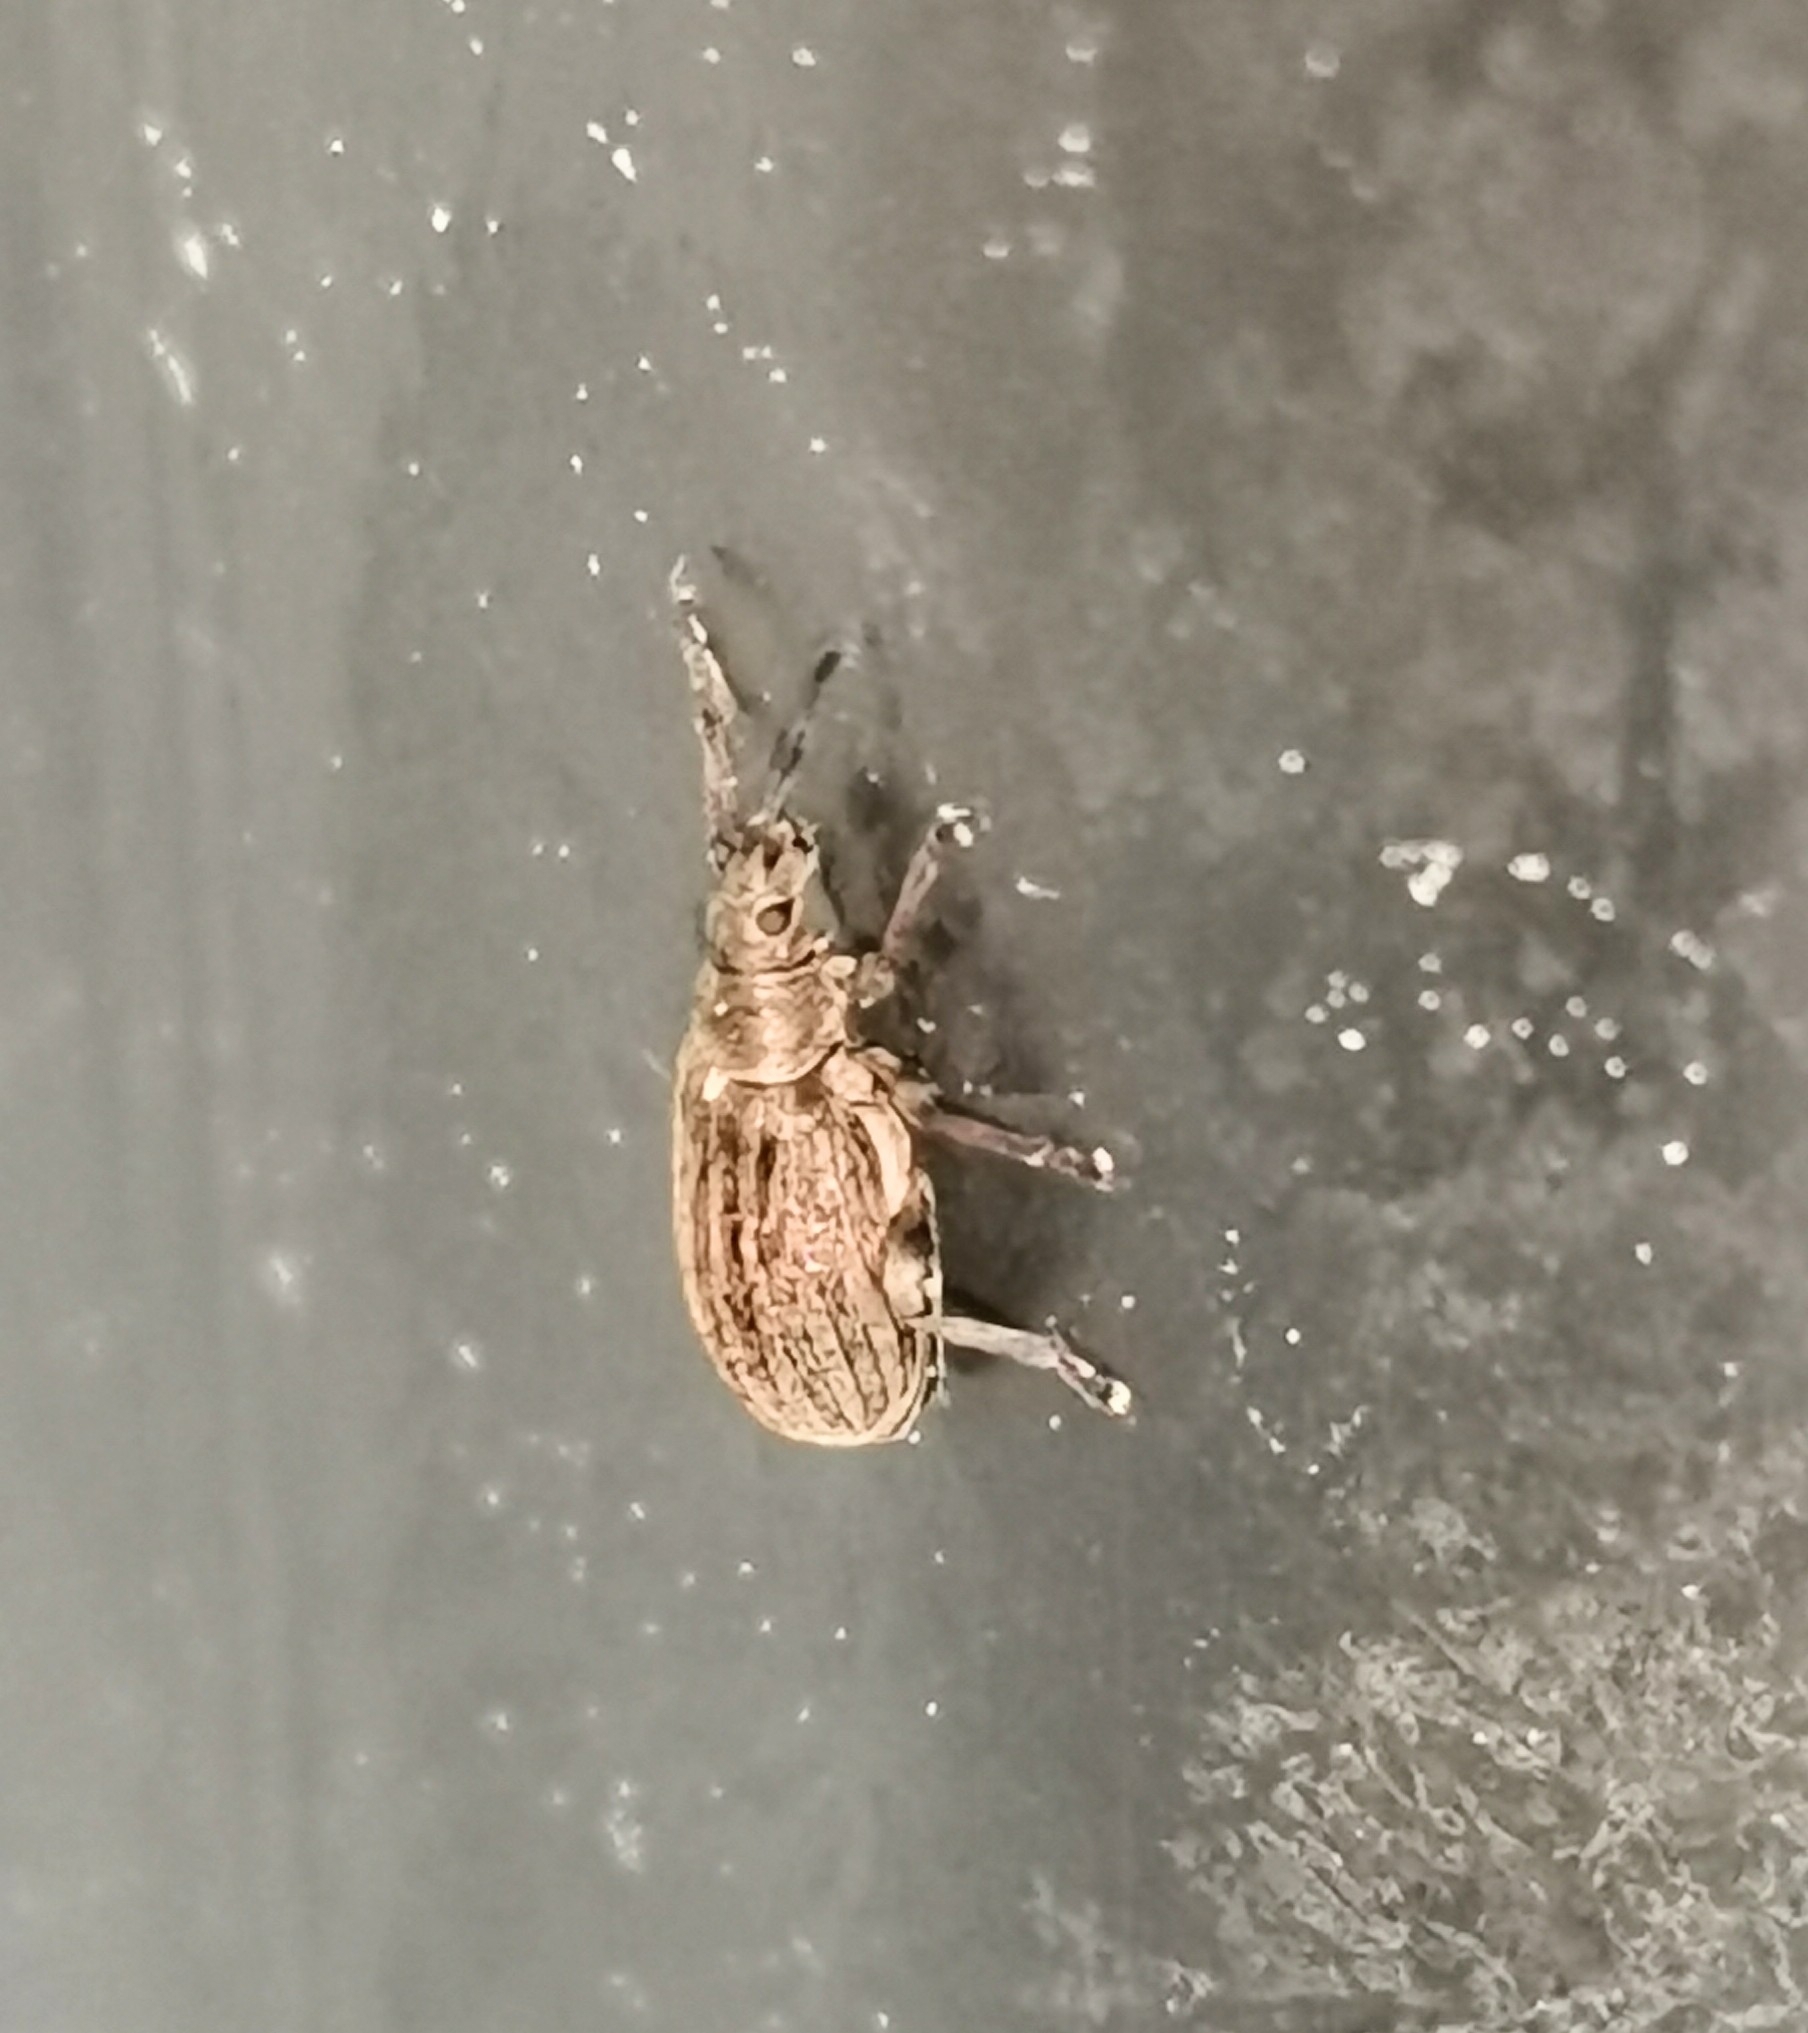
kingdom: Animalia
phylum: Arthropoda
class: Insecta
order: Coleoptera
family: Curculionidae
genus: Phyllobius
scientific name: Phyllobius pyri
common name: Common leaf weevil
